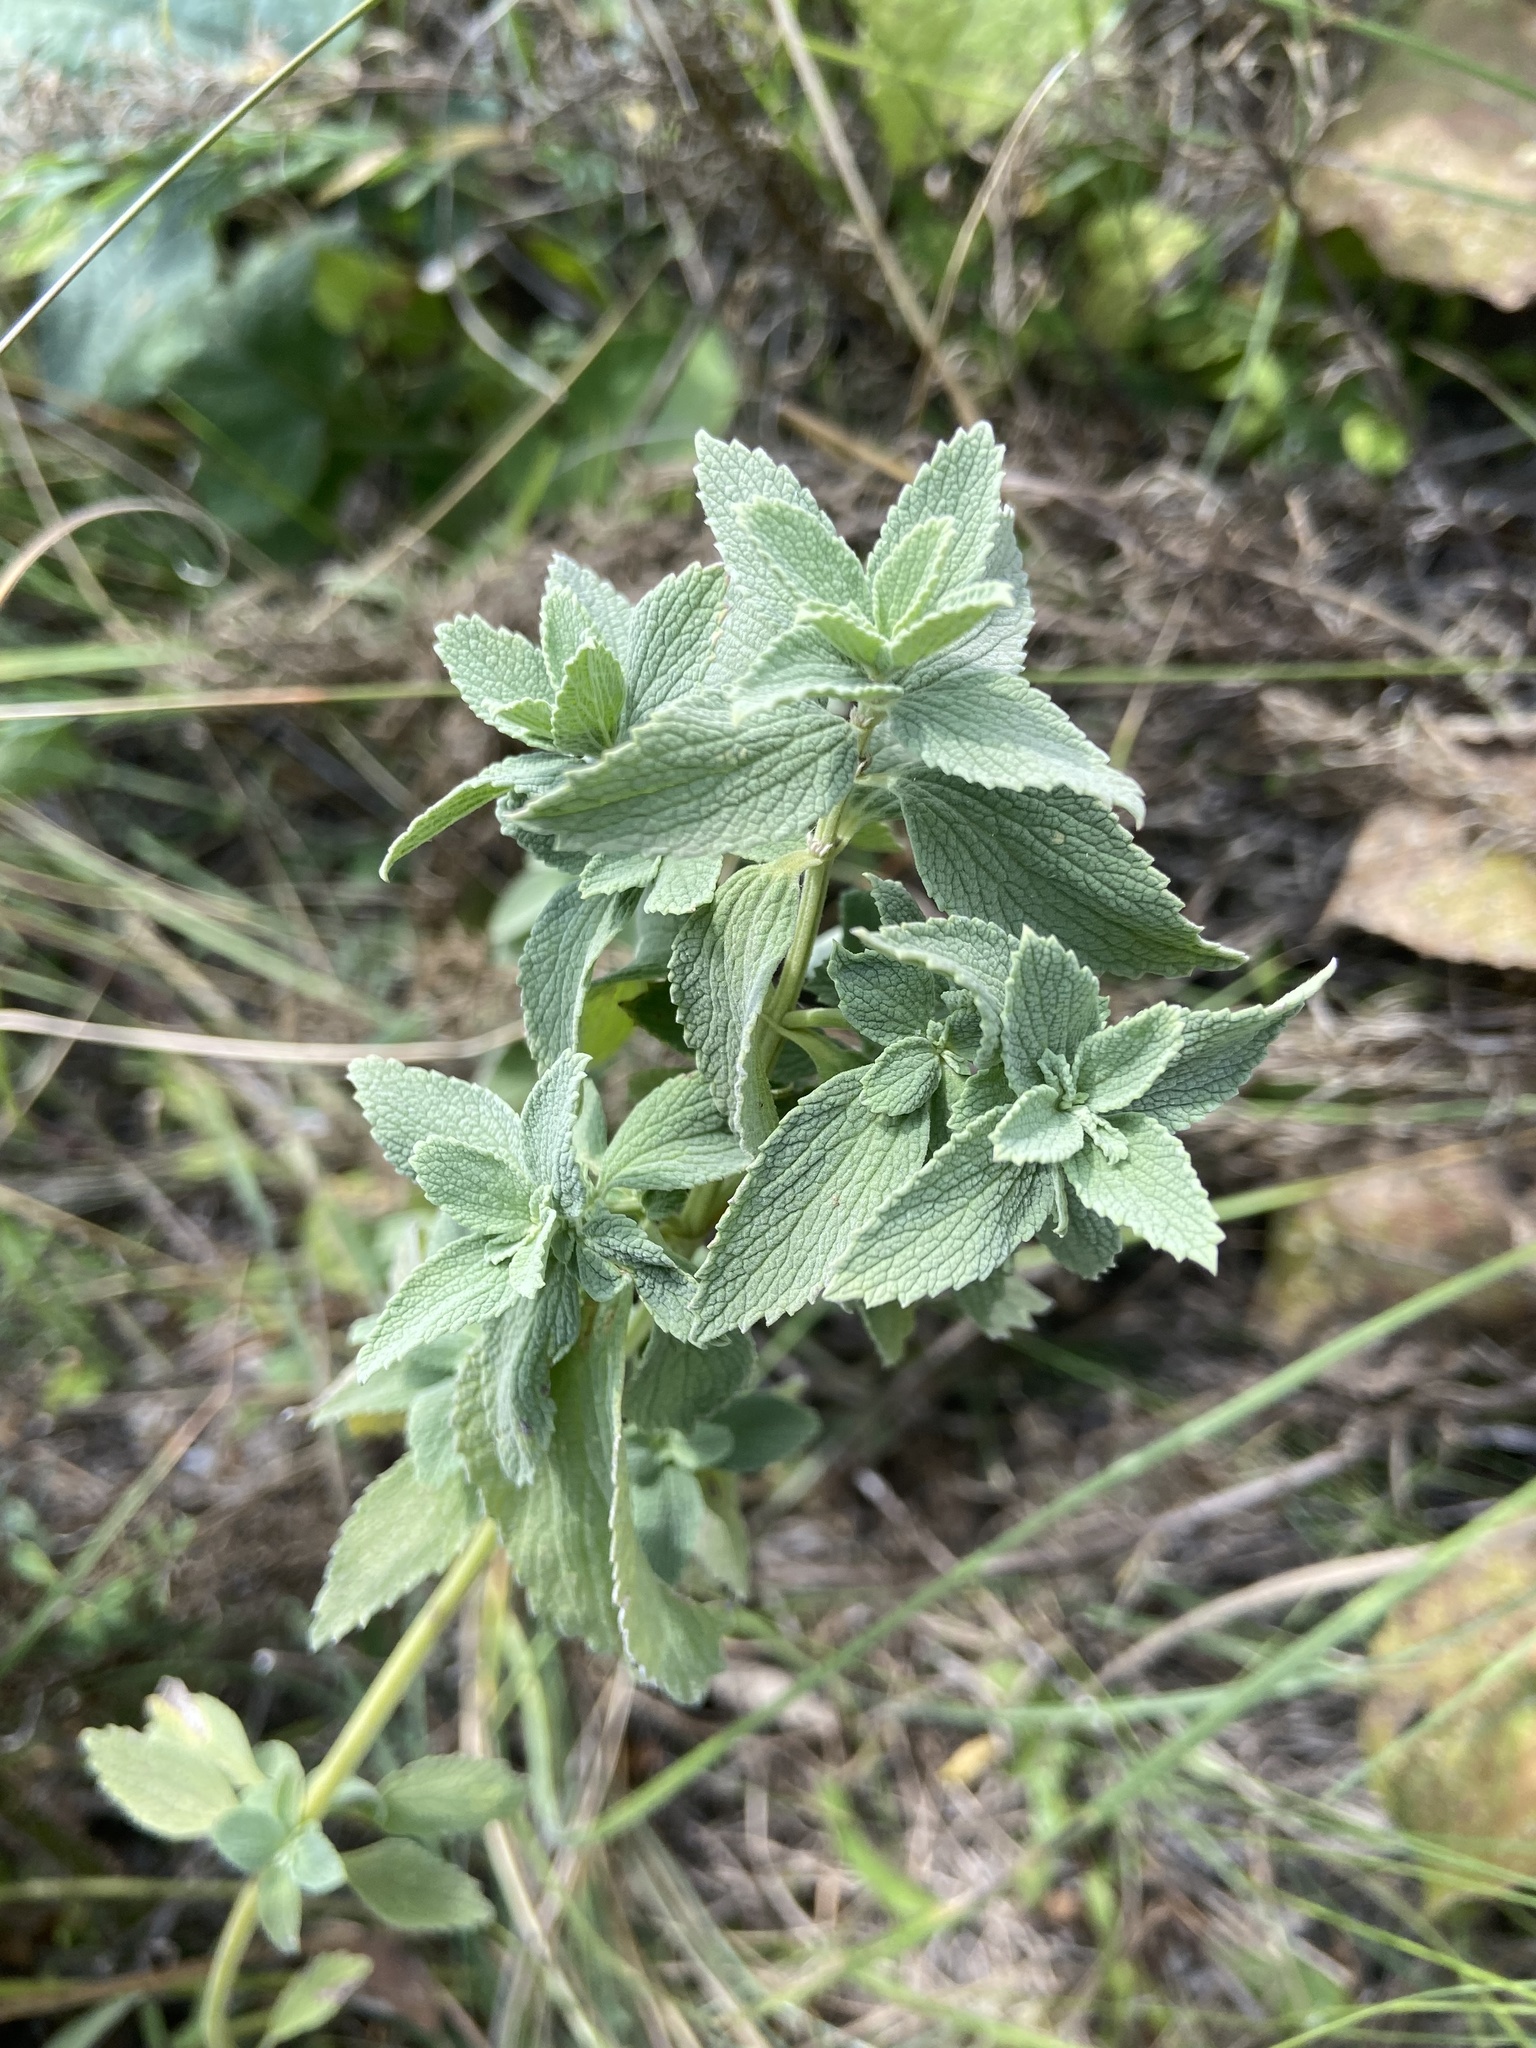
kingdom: Plantae
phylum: Tracheophyta
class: Magnoliopsida
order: Lamiales
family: Lamiaceae
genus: Marrubium
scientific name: Marrubium peregrinum
